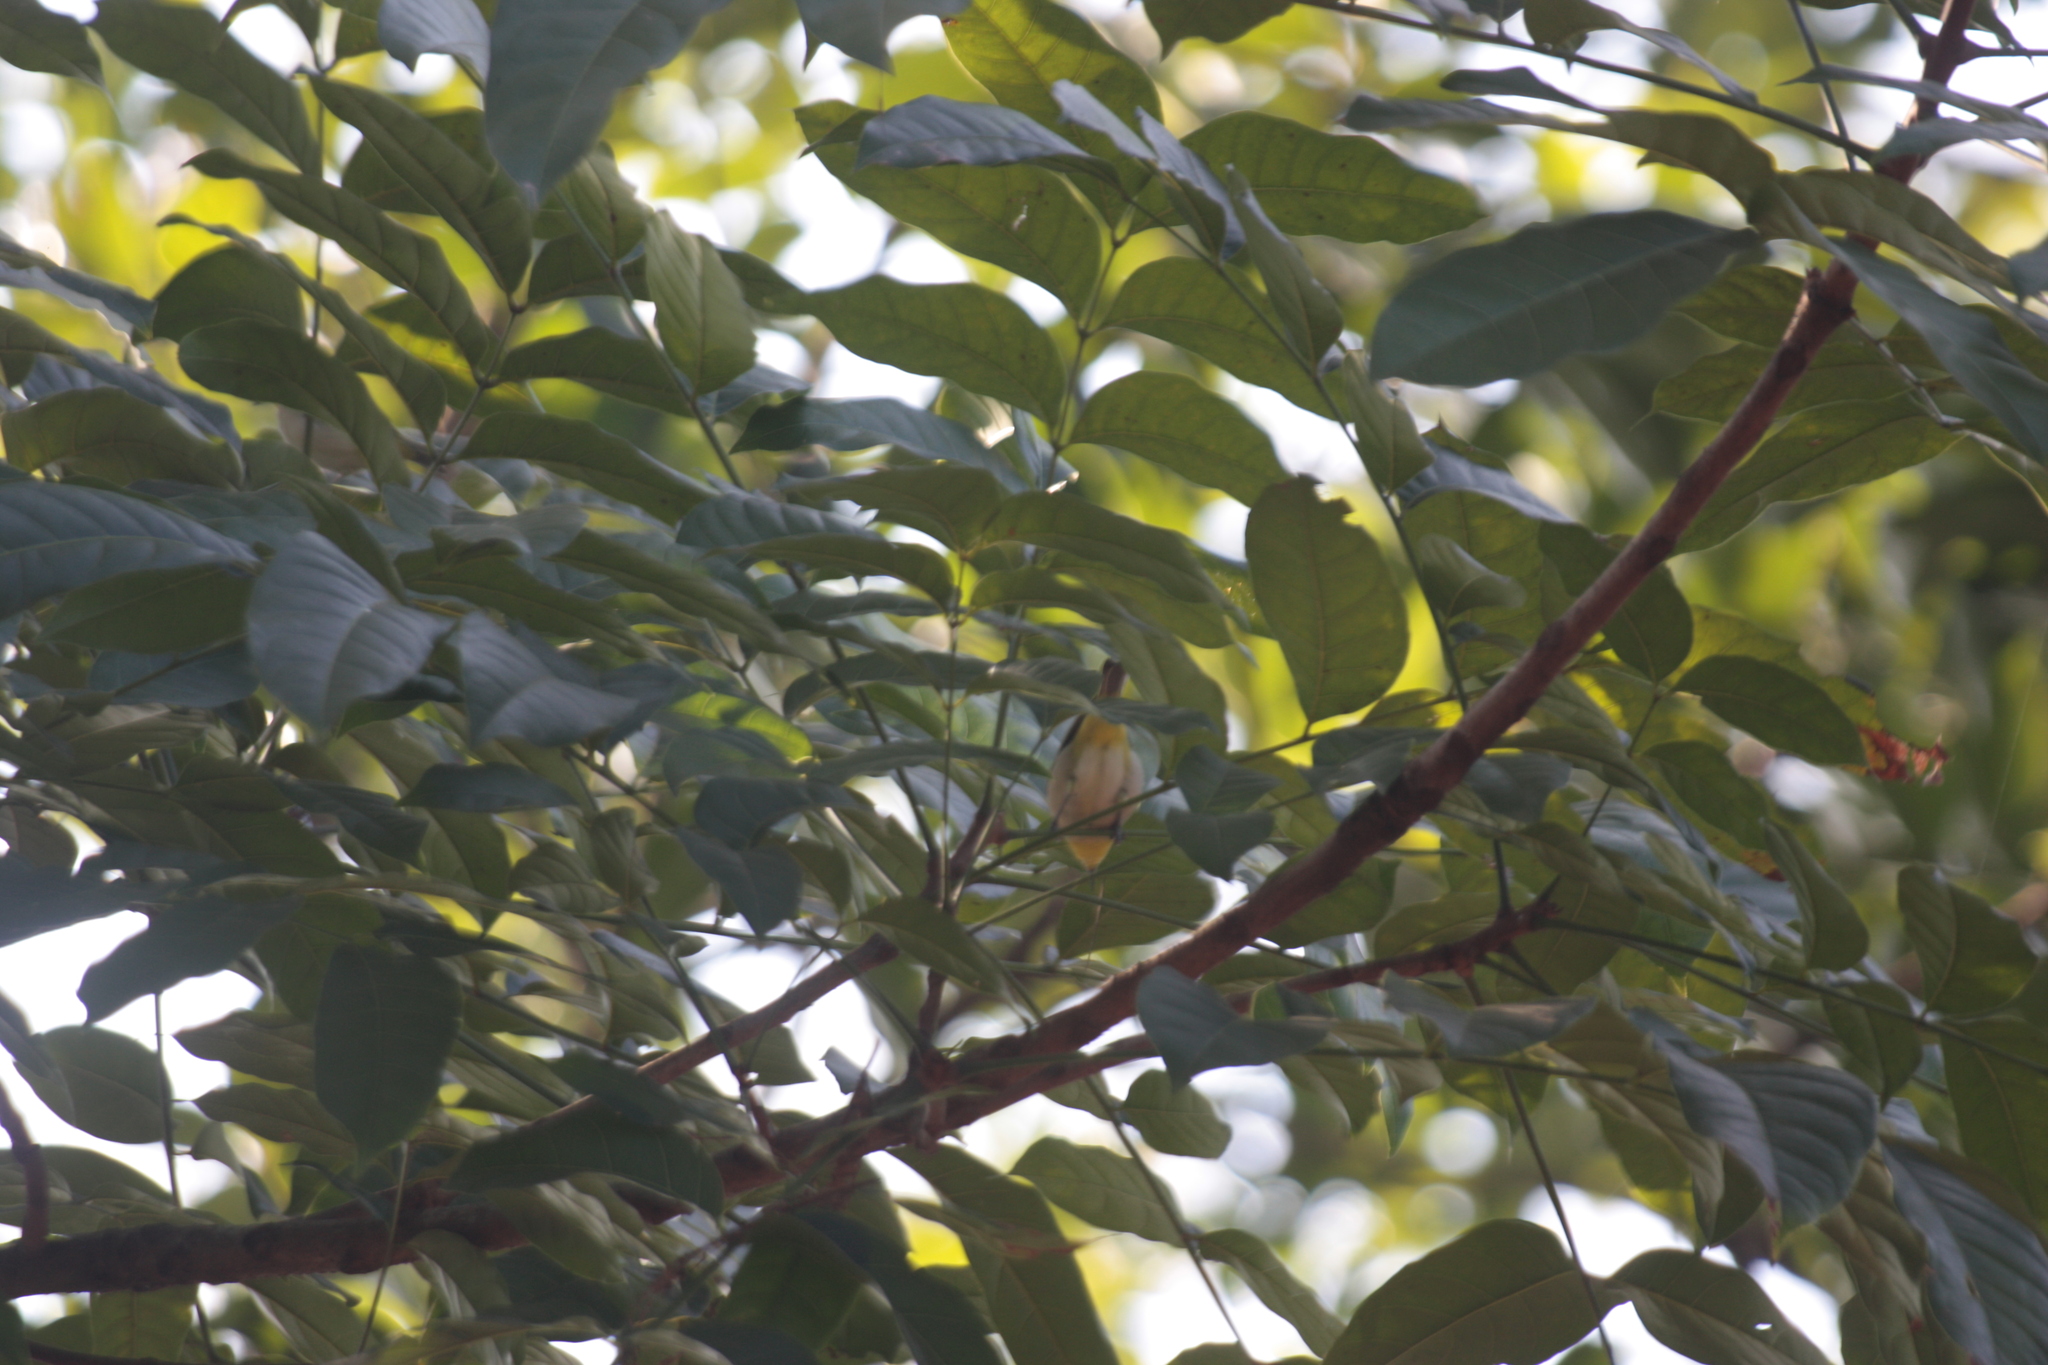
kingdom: Animalia
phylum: Chordata
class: Aves
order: Passeriformes
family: Zosteropidae
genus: Zosterops
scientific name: Zosterops simplex
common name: Swinhoe's white-eye
